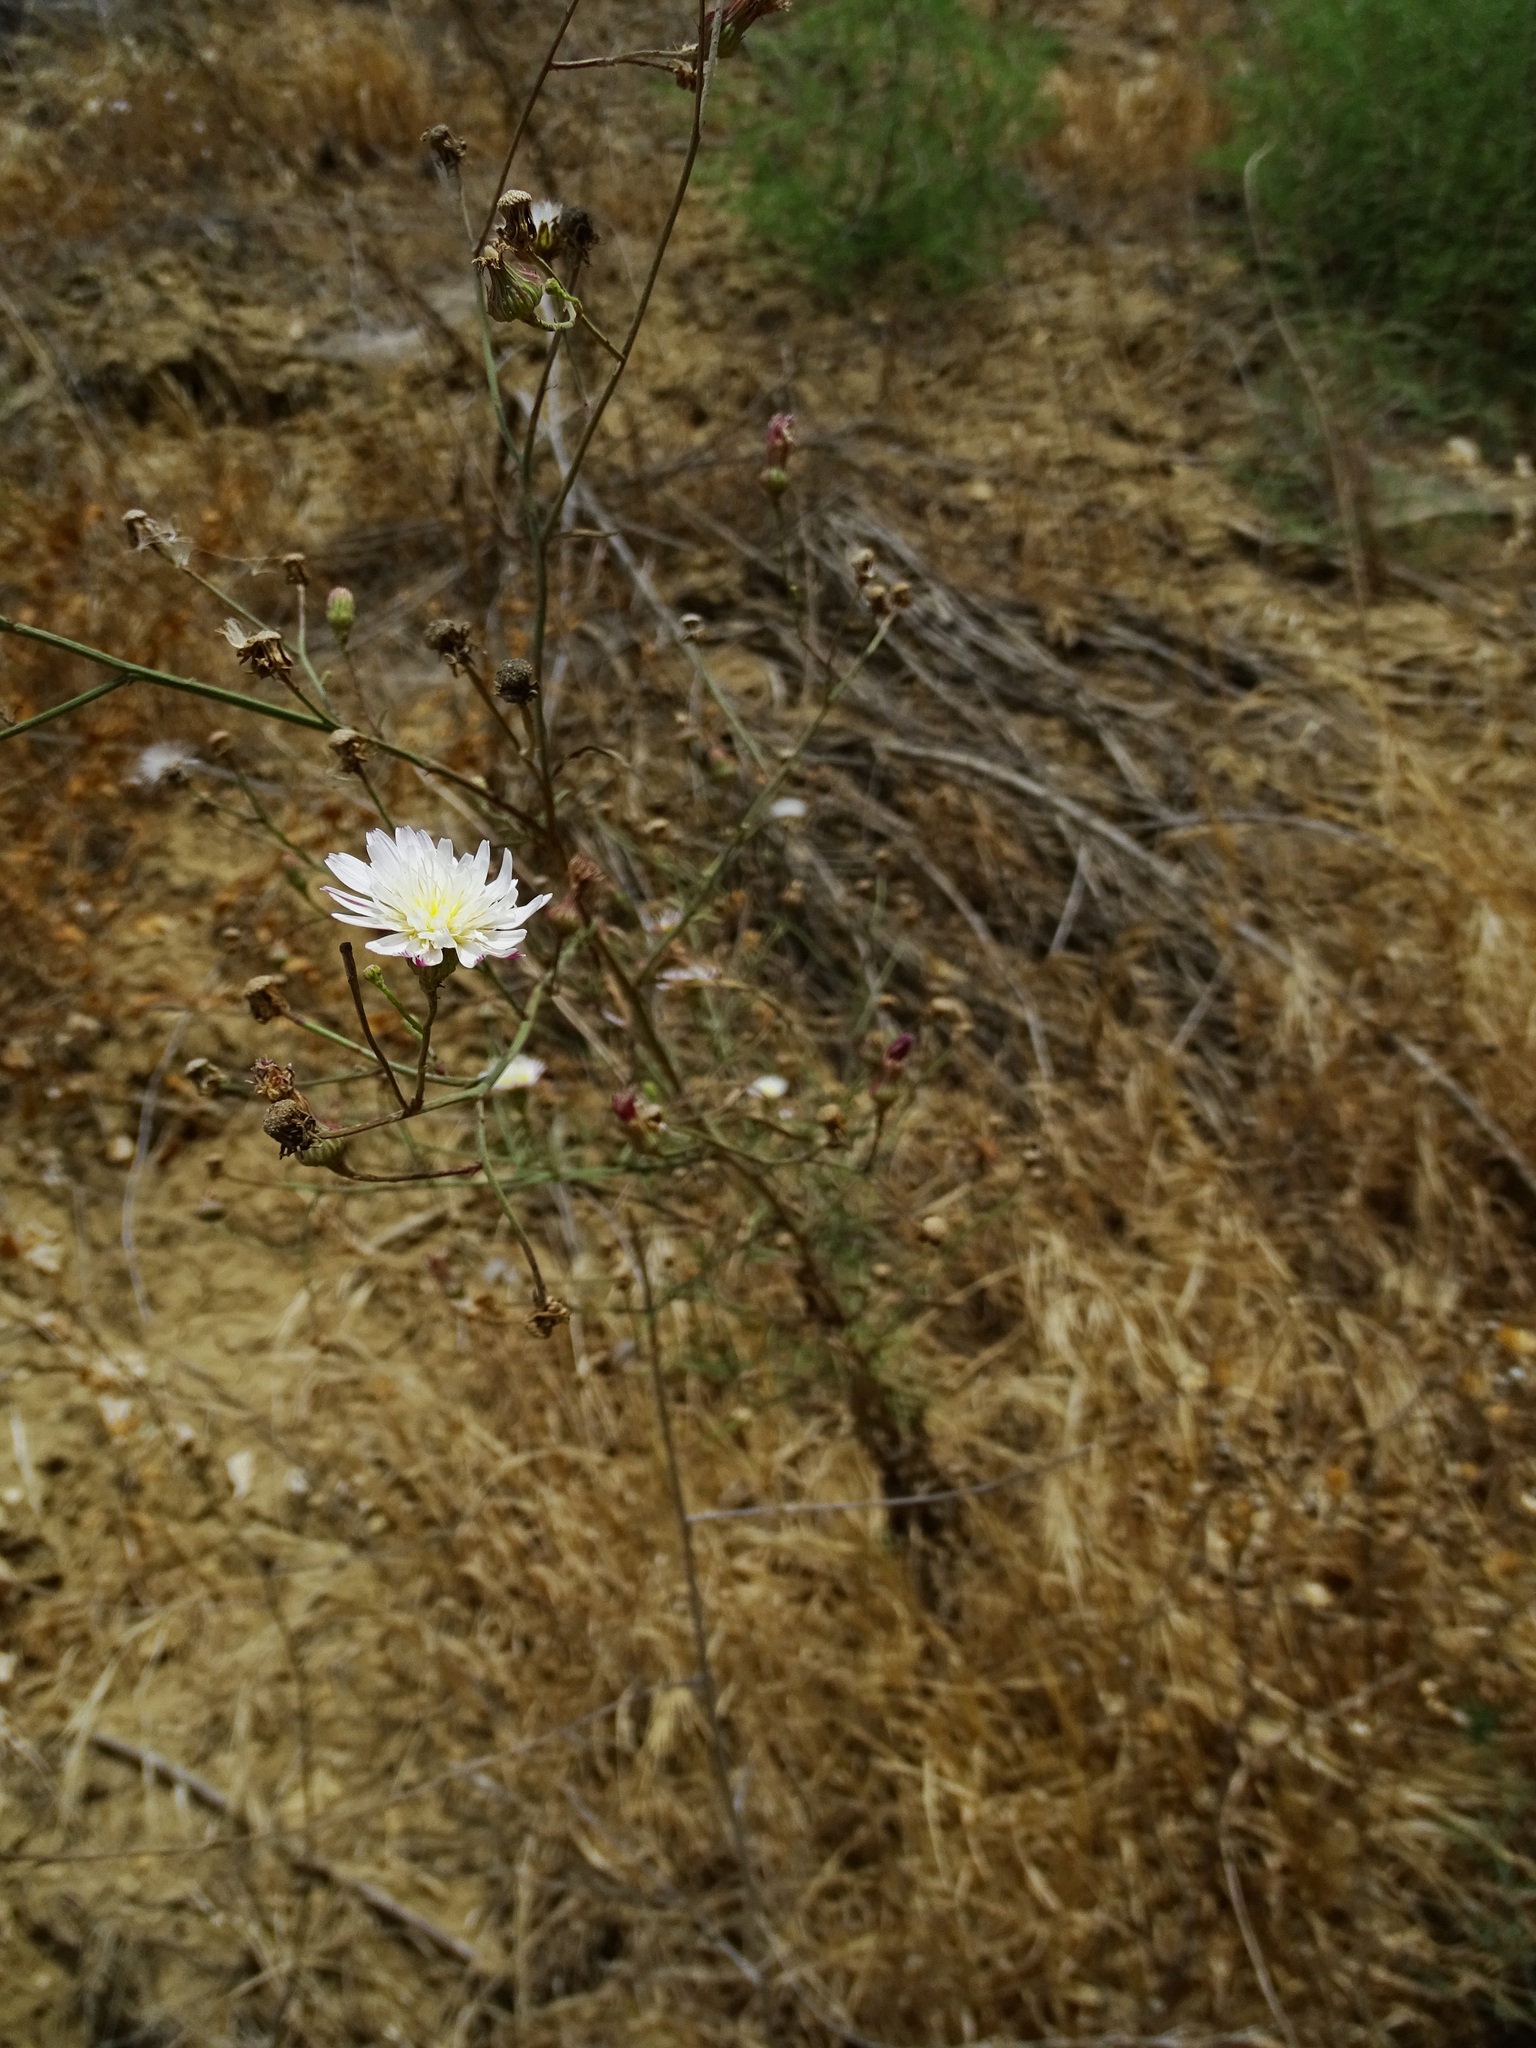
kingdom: Plantae
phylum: Tracheophyta
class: Magnoliopsida
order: Asterales
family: Asteraceae
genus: Malacothrix
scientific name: Malacothrix saxatilis
